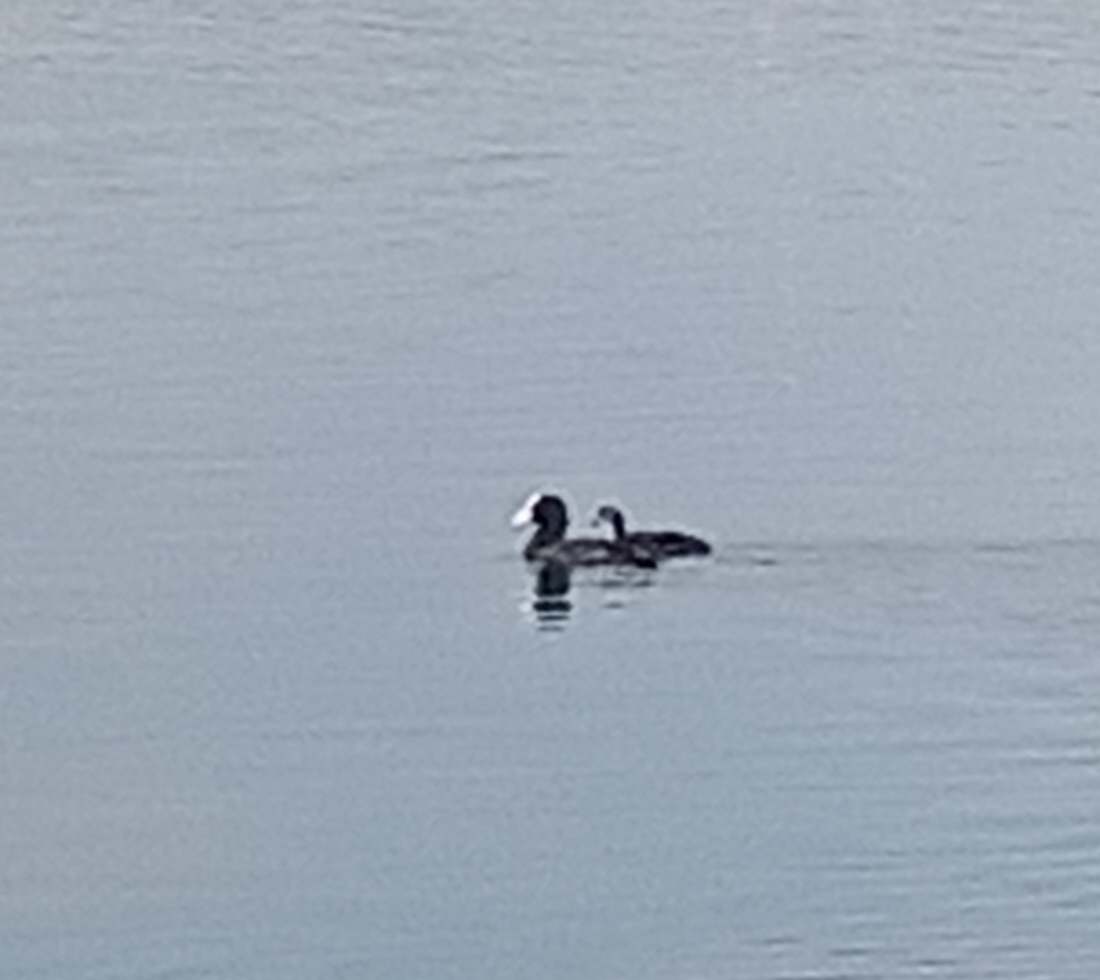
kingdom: Animalia
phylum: Chordata
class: Aves
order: Gruiformes
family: Rallidae
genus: Fulica
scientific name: Fulica atra
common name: Eurasian coot
